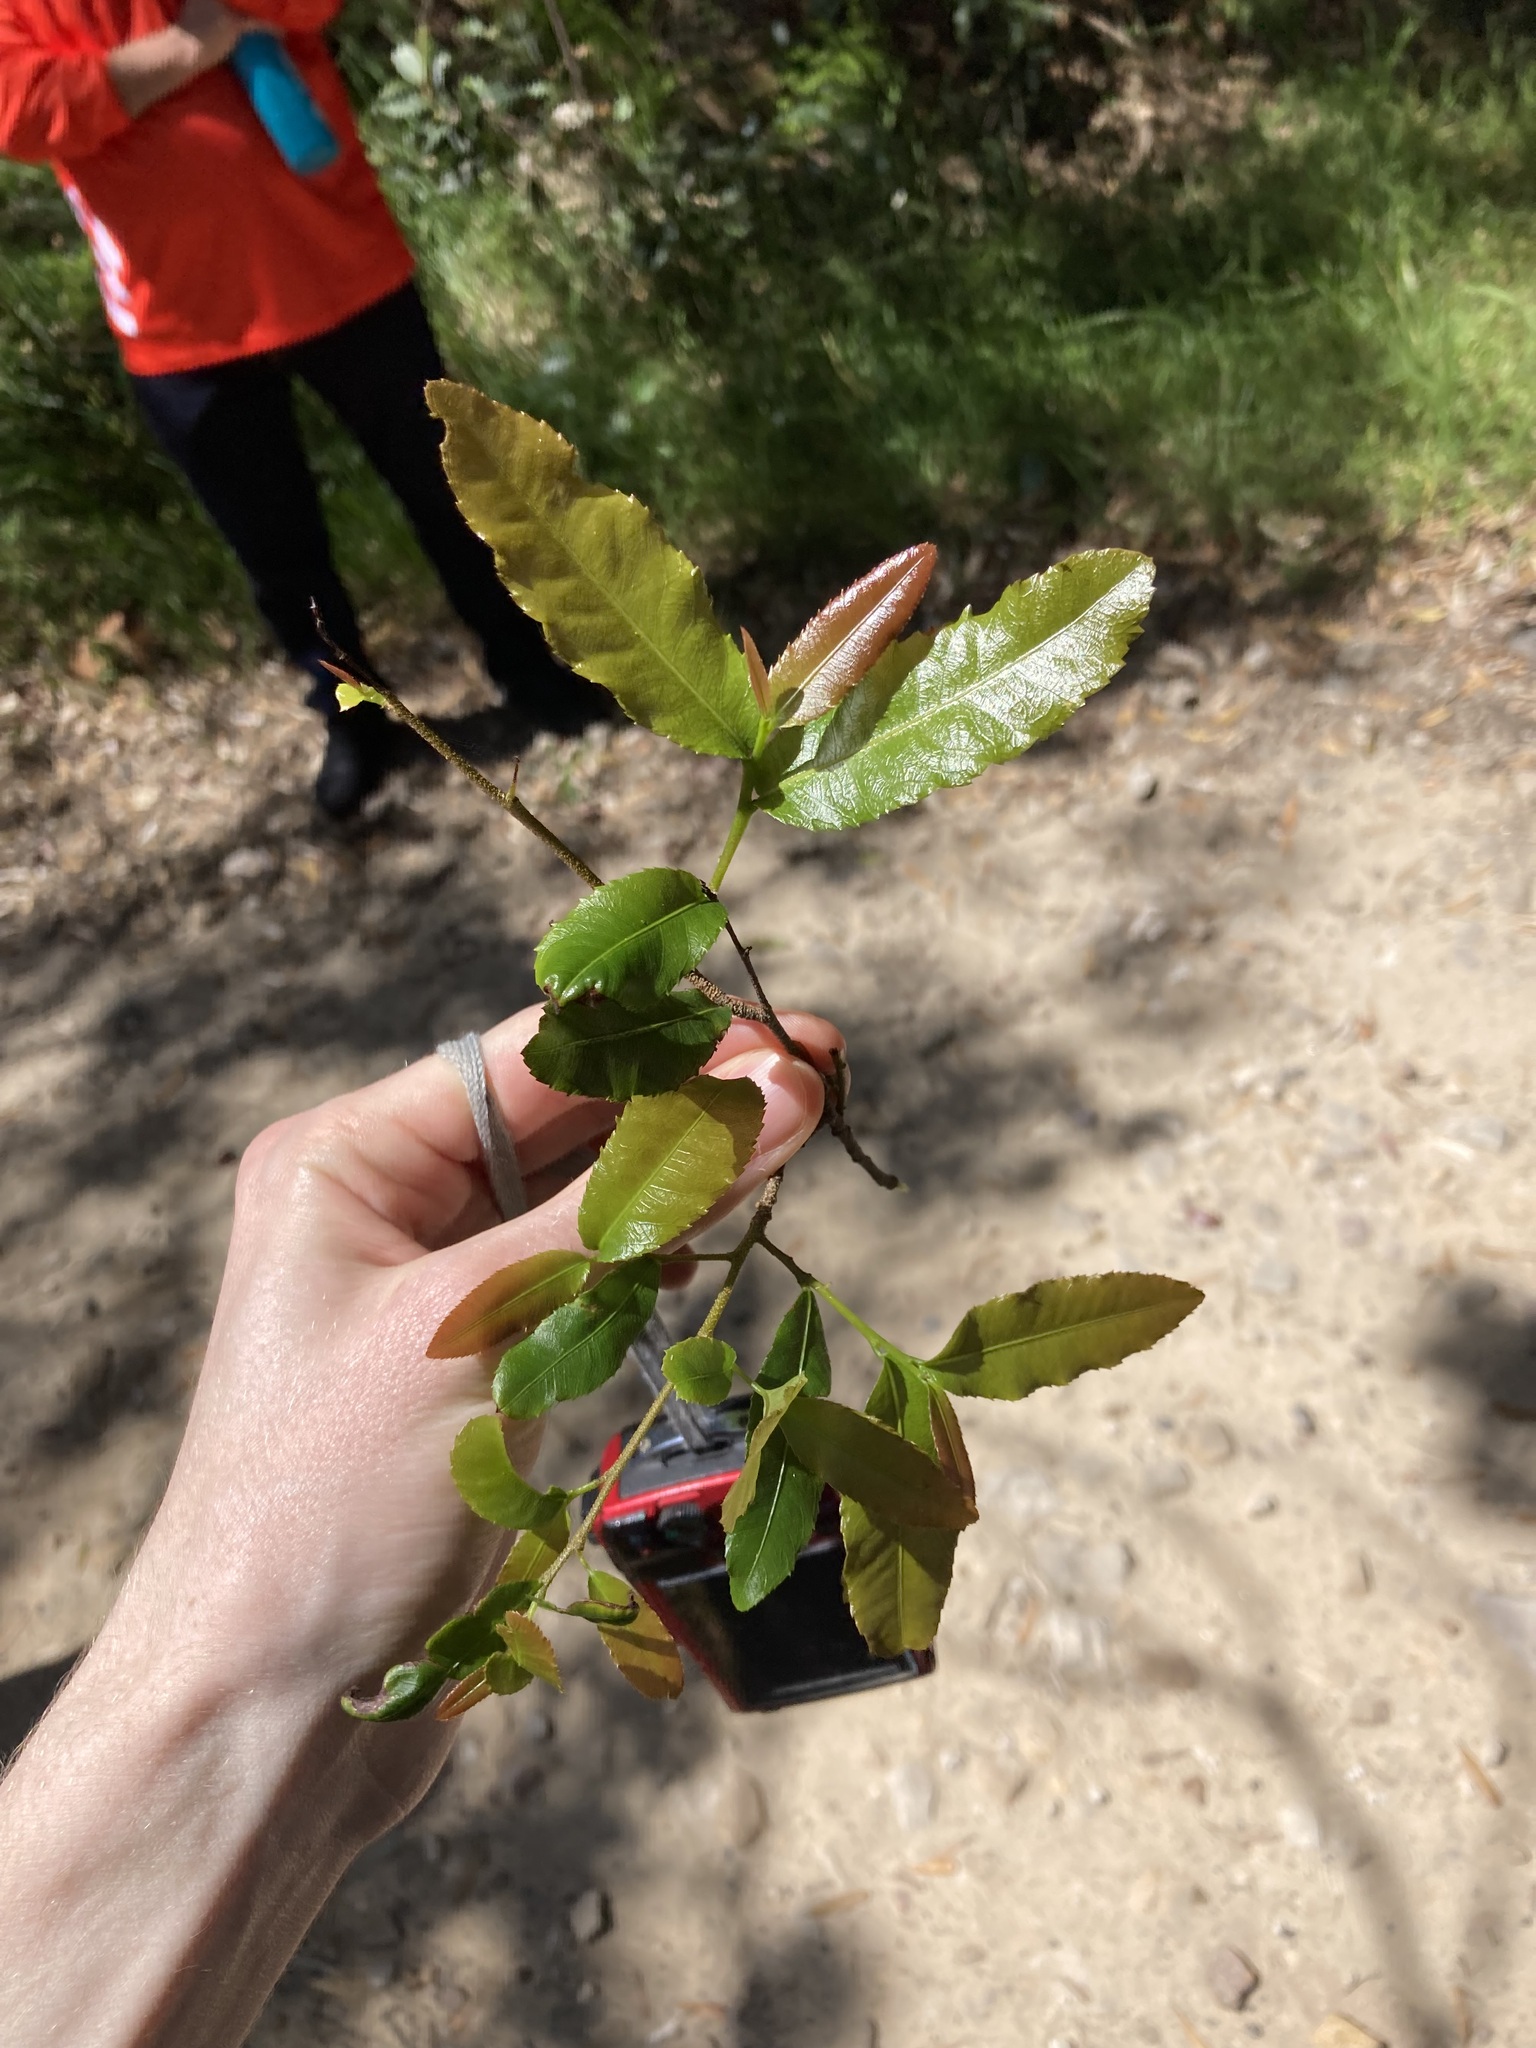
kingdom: Plantae
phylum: Tracheophyta
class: Magnoliopsida
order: Malpighiales
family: Ochnaceae
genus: Ochna
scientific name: Ochna serrulata
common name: Mickey mouse plant
